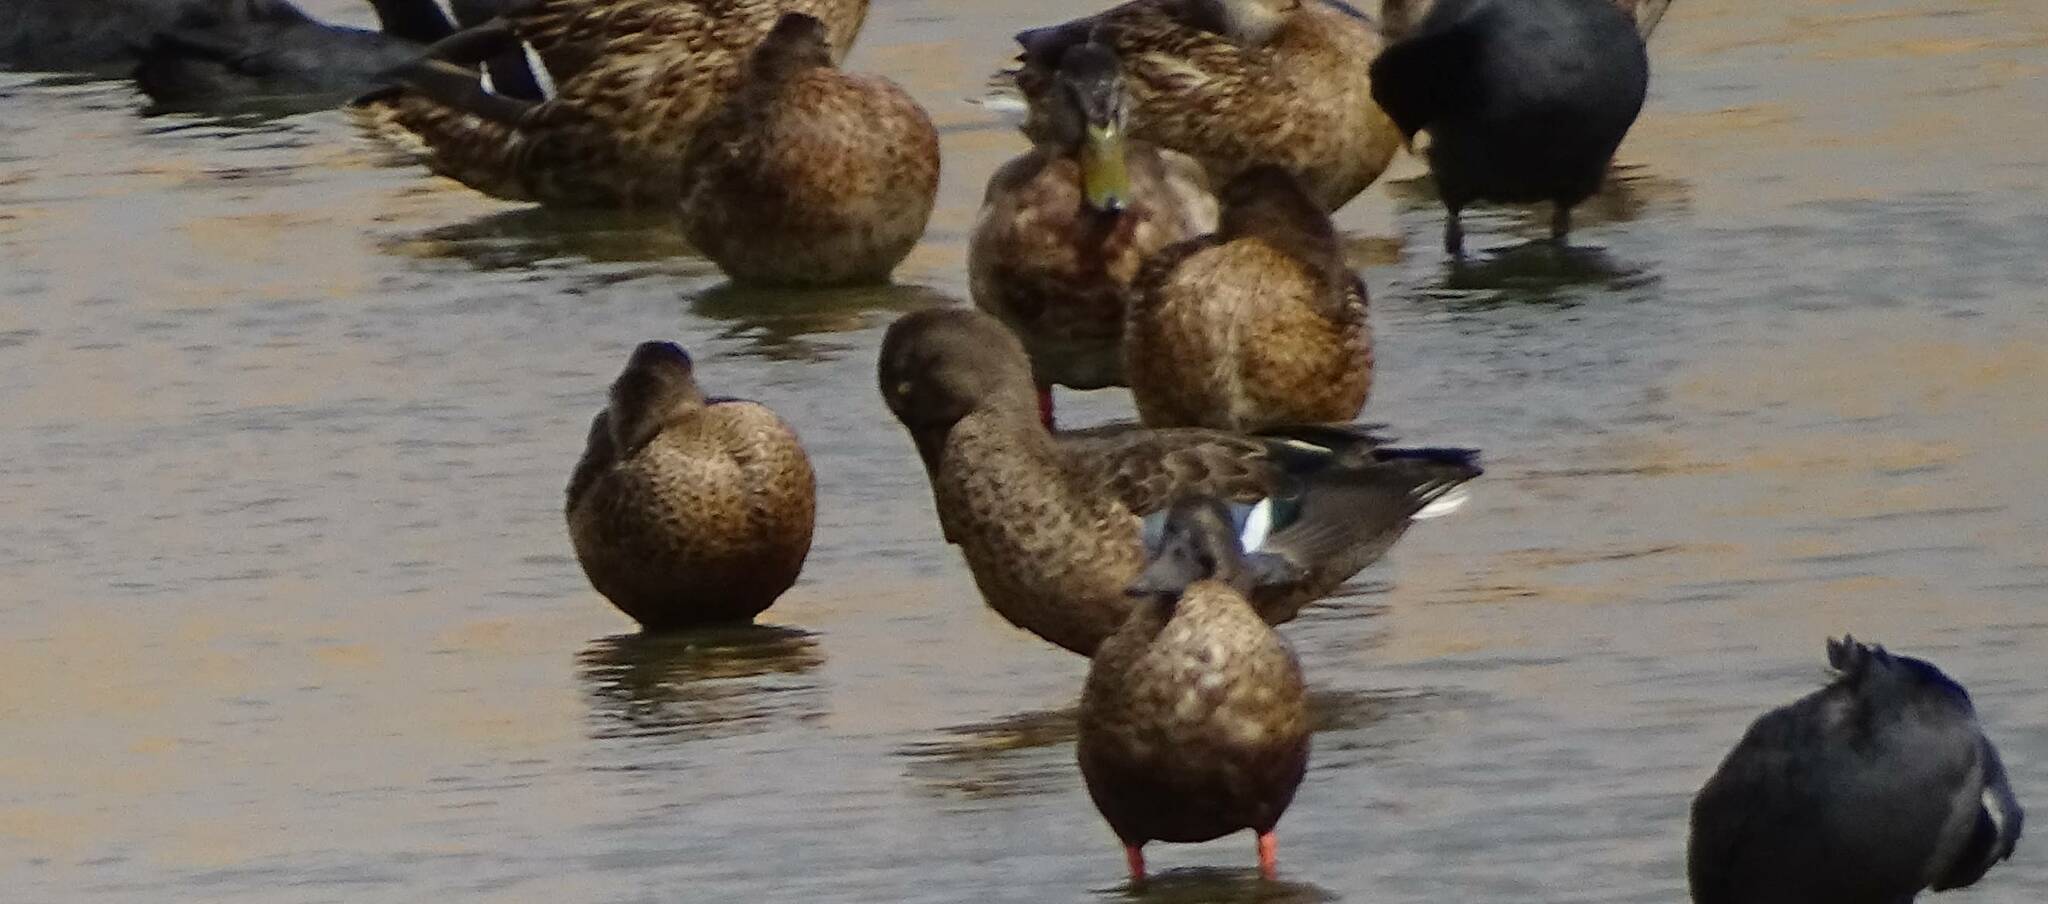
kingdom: Animalia
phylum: Chordata
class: Aves
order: Anseriformes
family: Anatidae
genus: Anas
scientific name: Anas platyrhynchos
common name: Mallard
